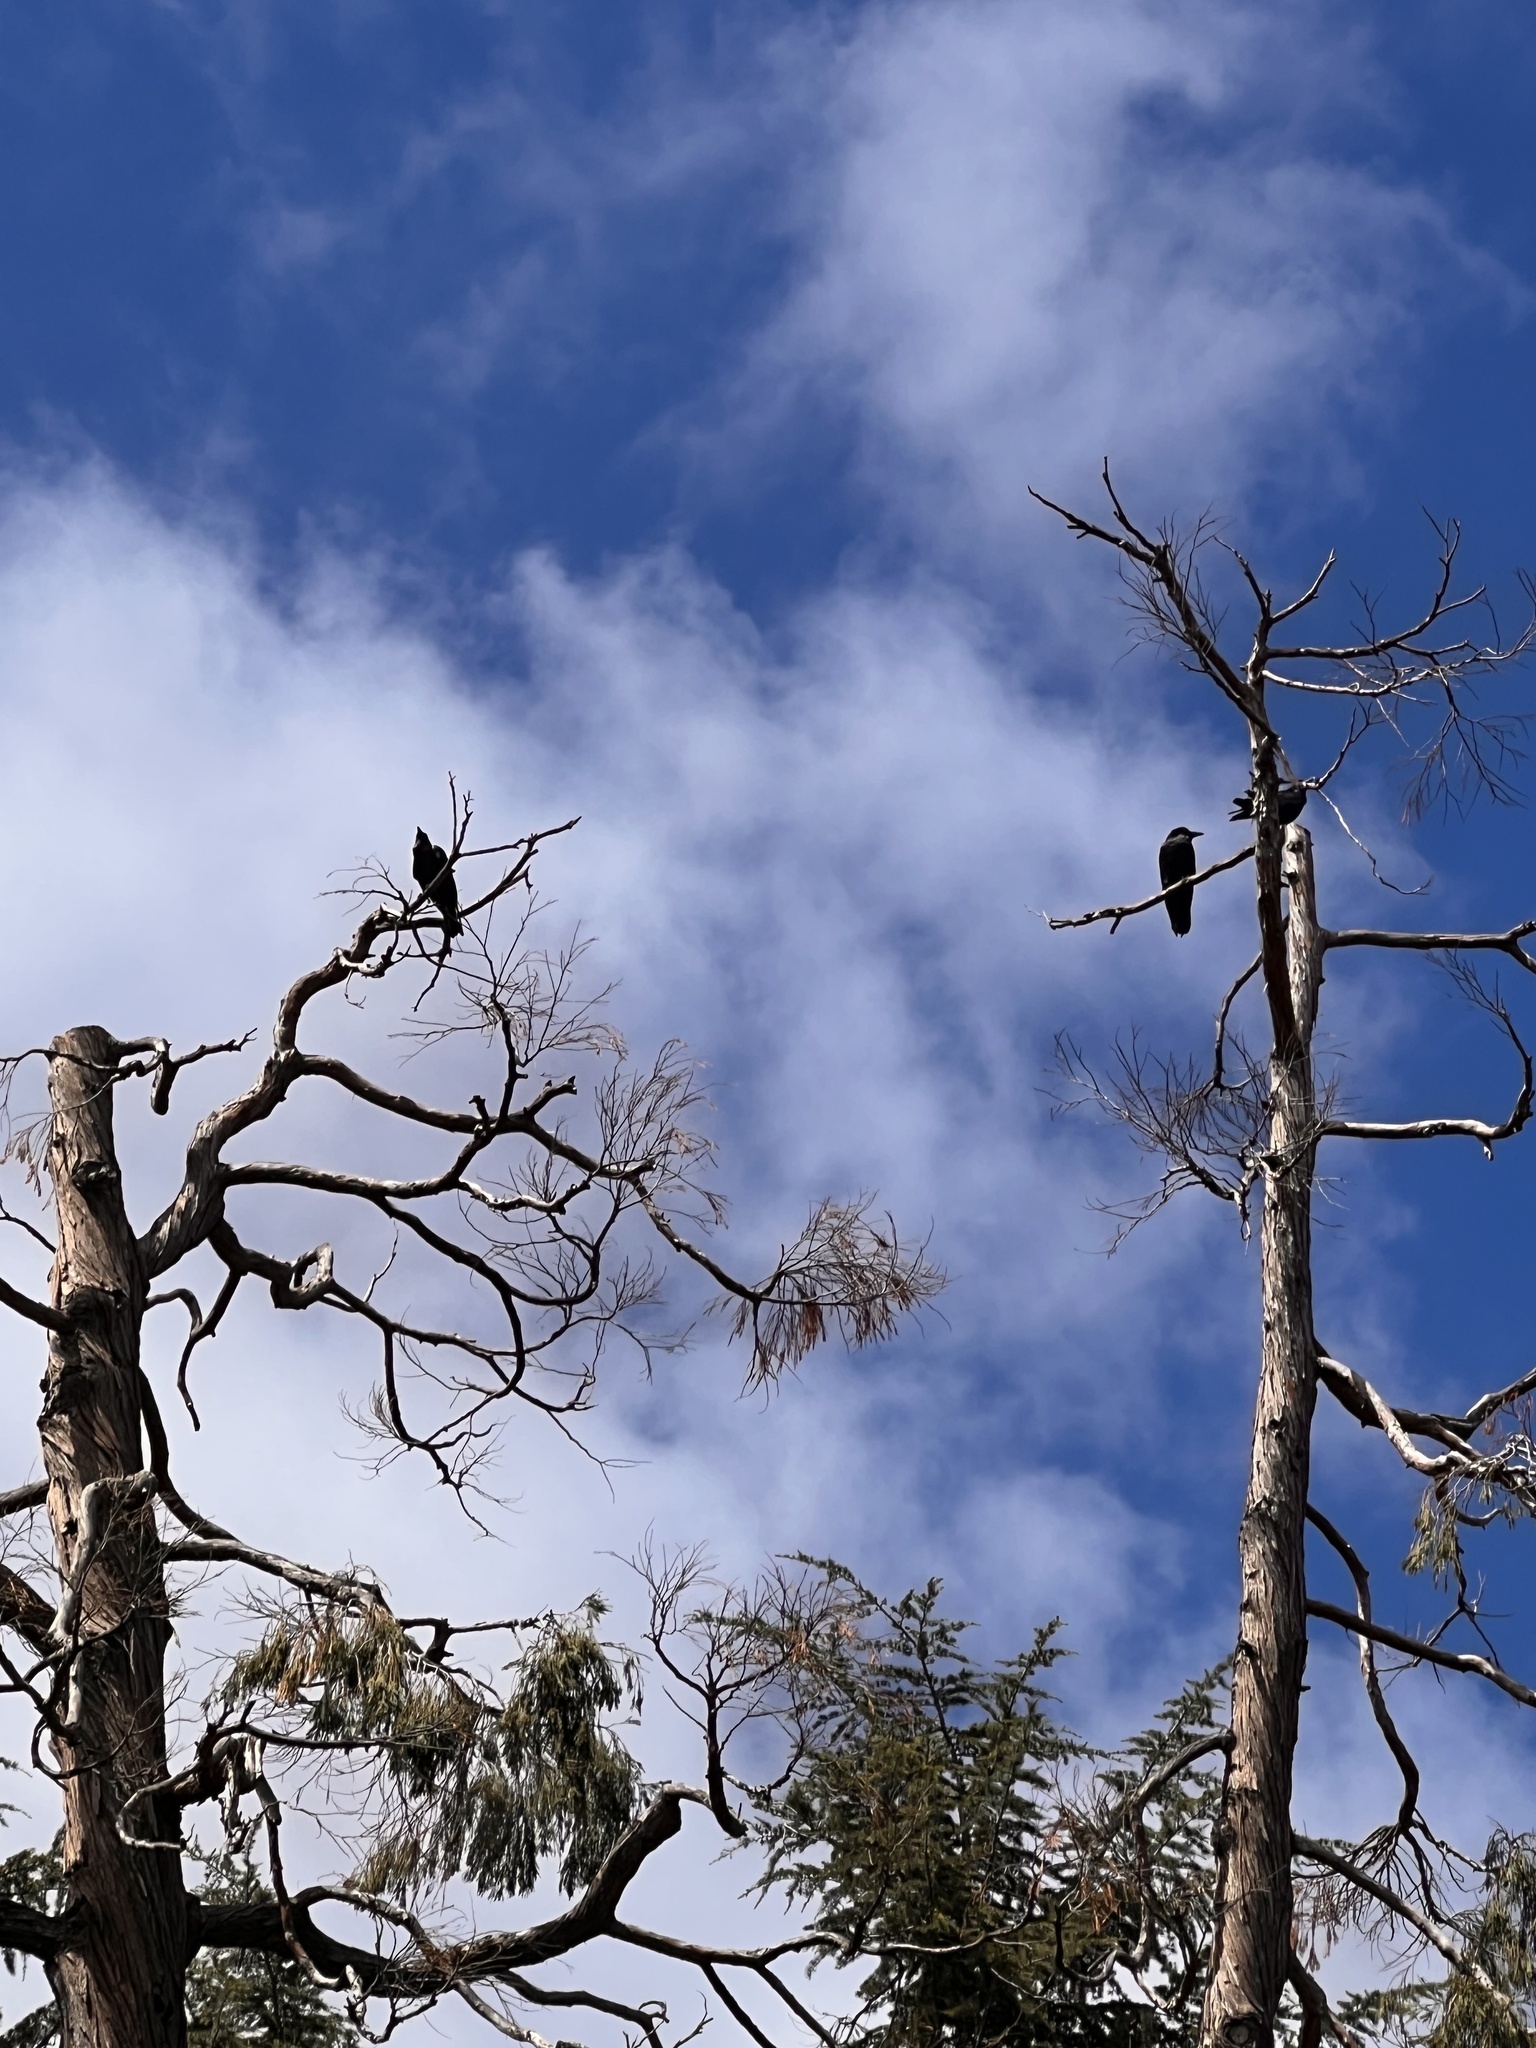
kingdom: Animalia
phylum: Chordata
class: Aves
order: Passeriformes
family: Corvidae
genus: Corvus
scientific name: Corvus corax
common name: Common raven
